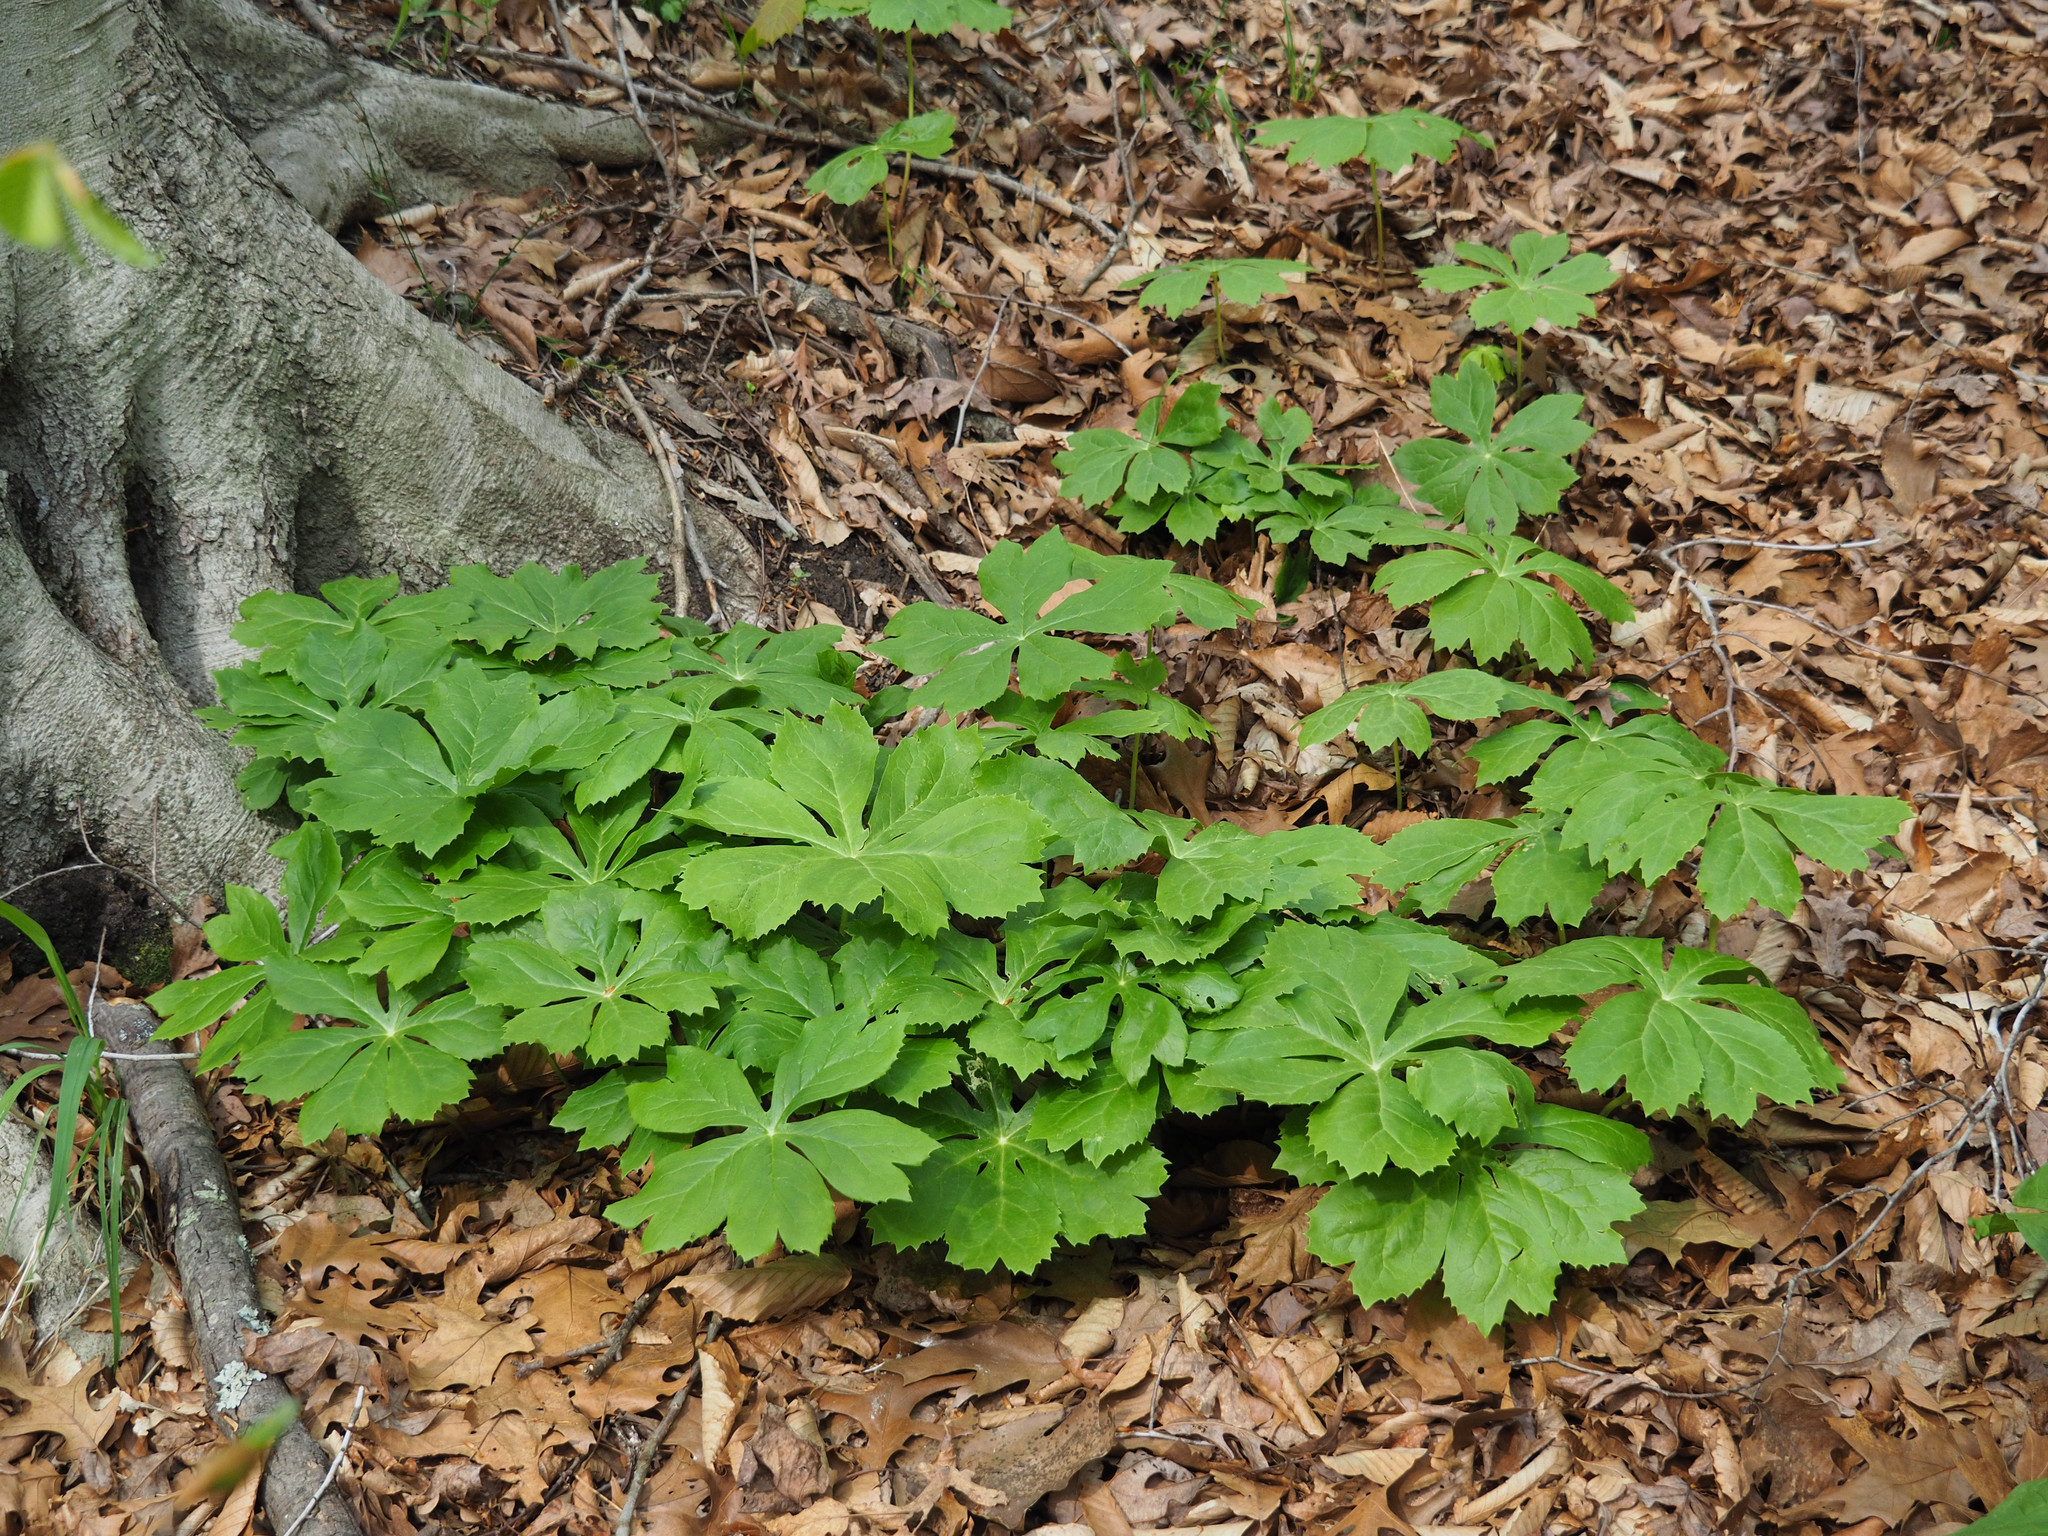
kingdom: Plantae
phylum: Tracheophyta
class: Magnoliopsida
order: Ranunculales
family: Berberidaceae
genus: Podophyllum
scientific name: Podophyllum peltatum
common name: Wild mandrake
